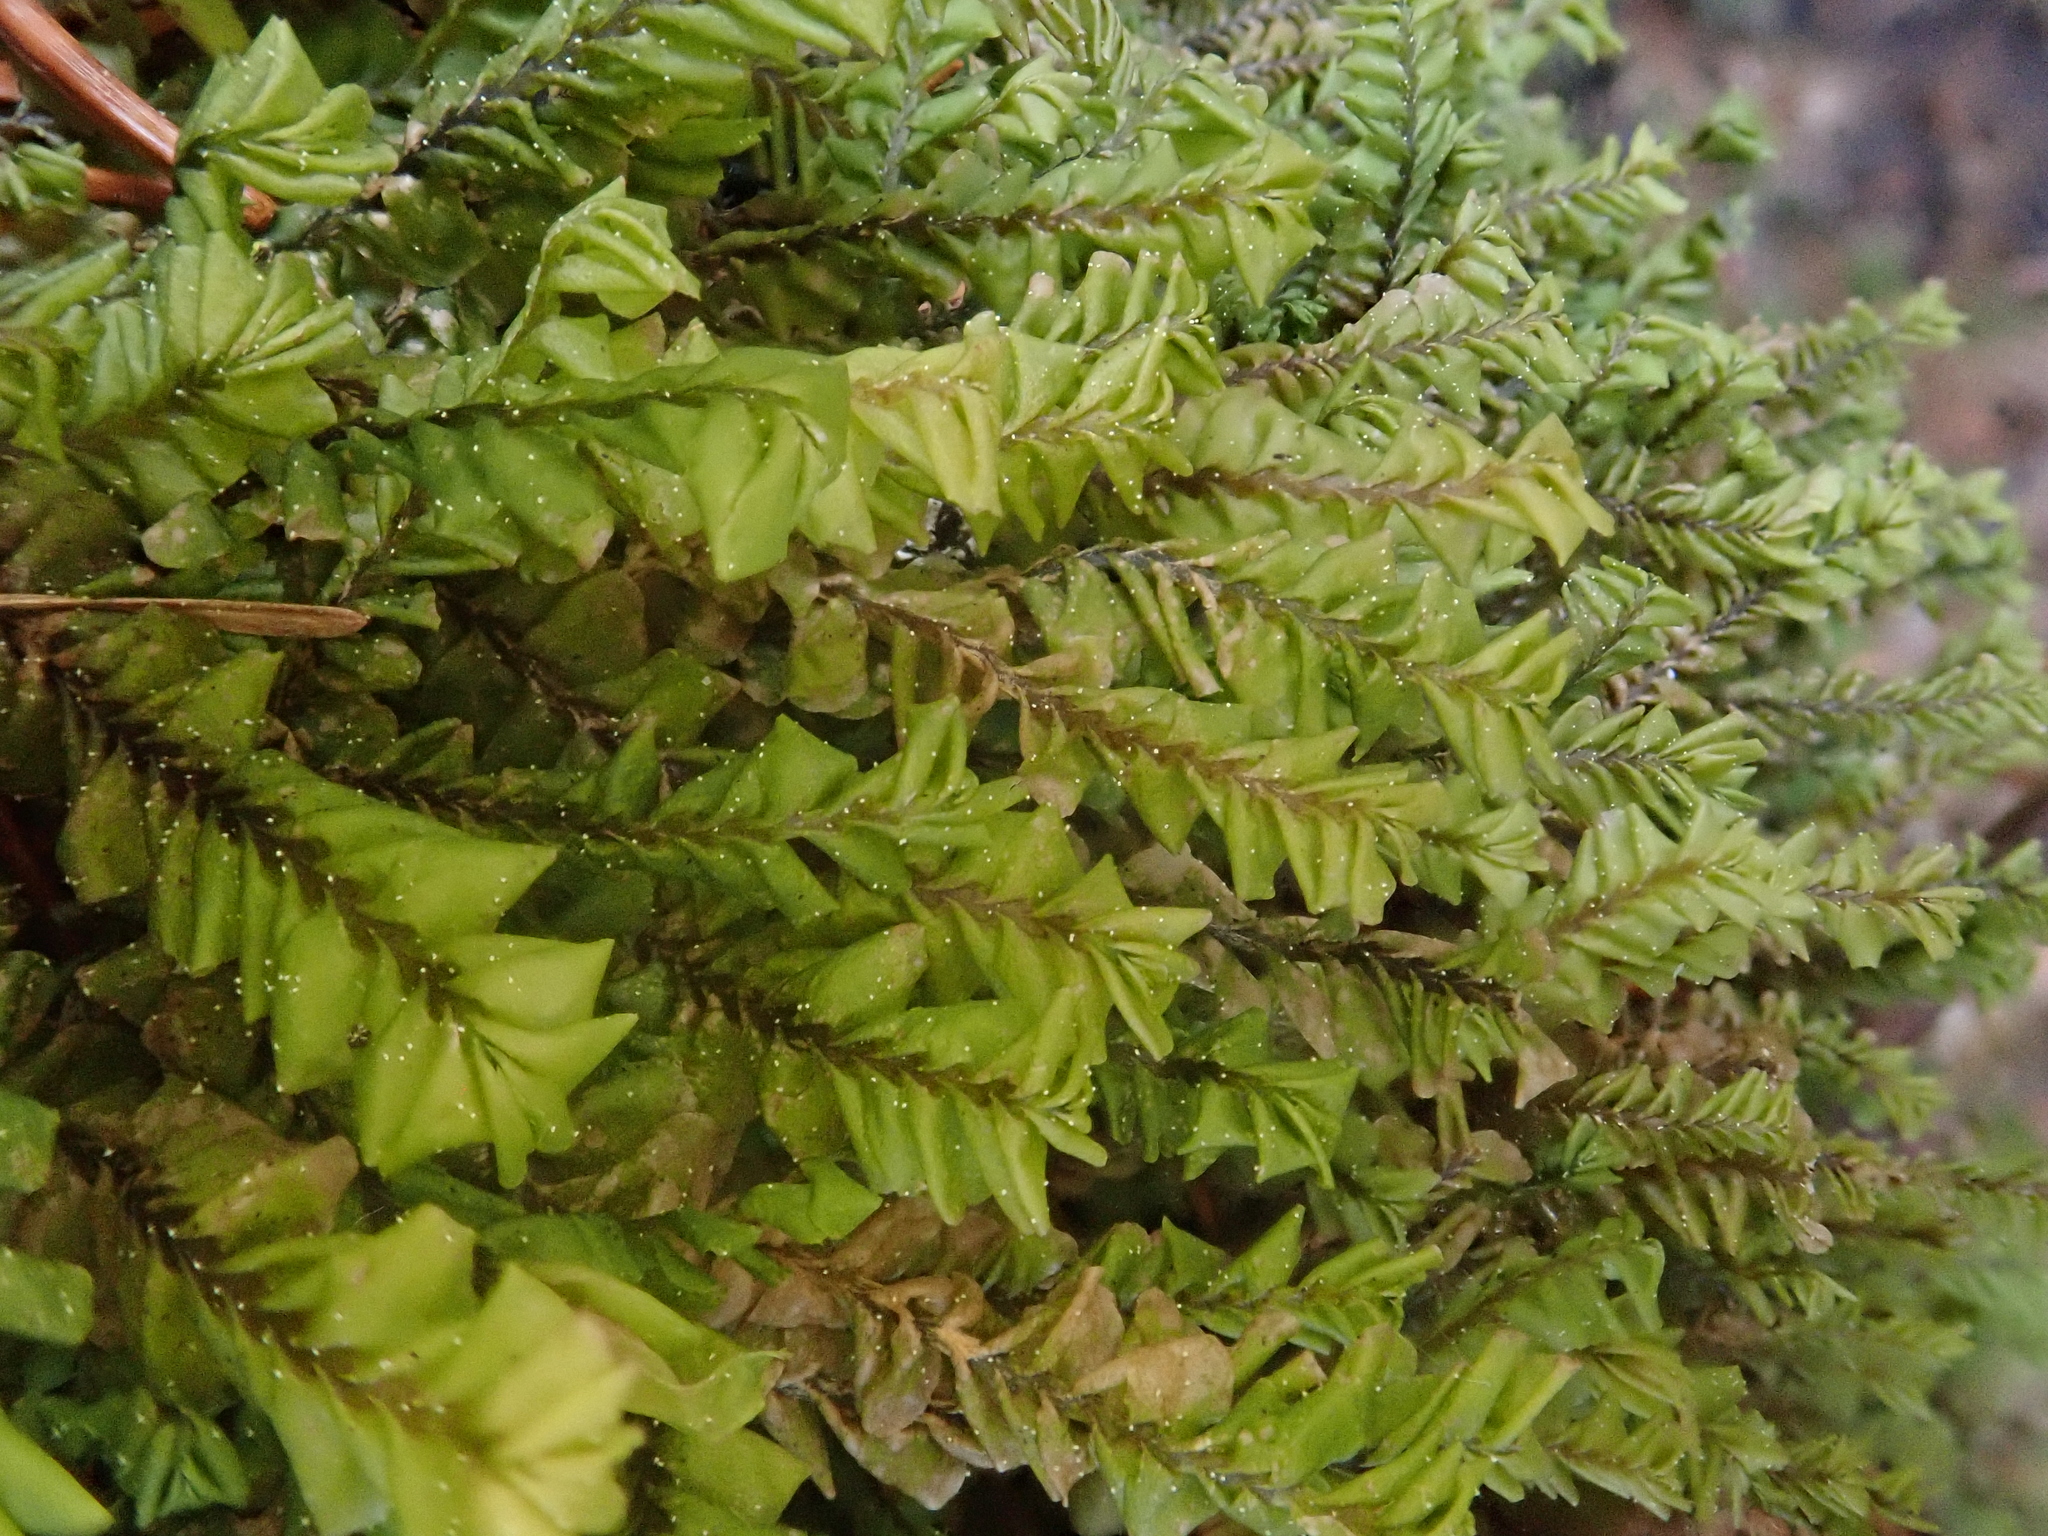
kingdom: Plantae
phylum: Marchantiophyta
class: Jungermanniopsida
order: Jungermanniales
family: Plagiochilaceae
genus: Plagiochila
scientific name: Plagiochila asplenioides
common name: Greater featherwort
